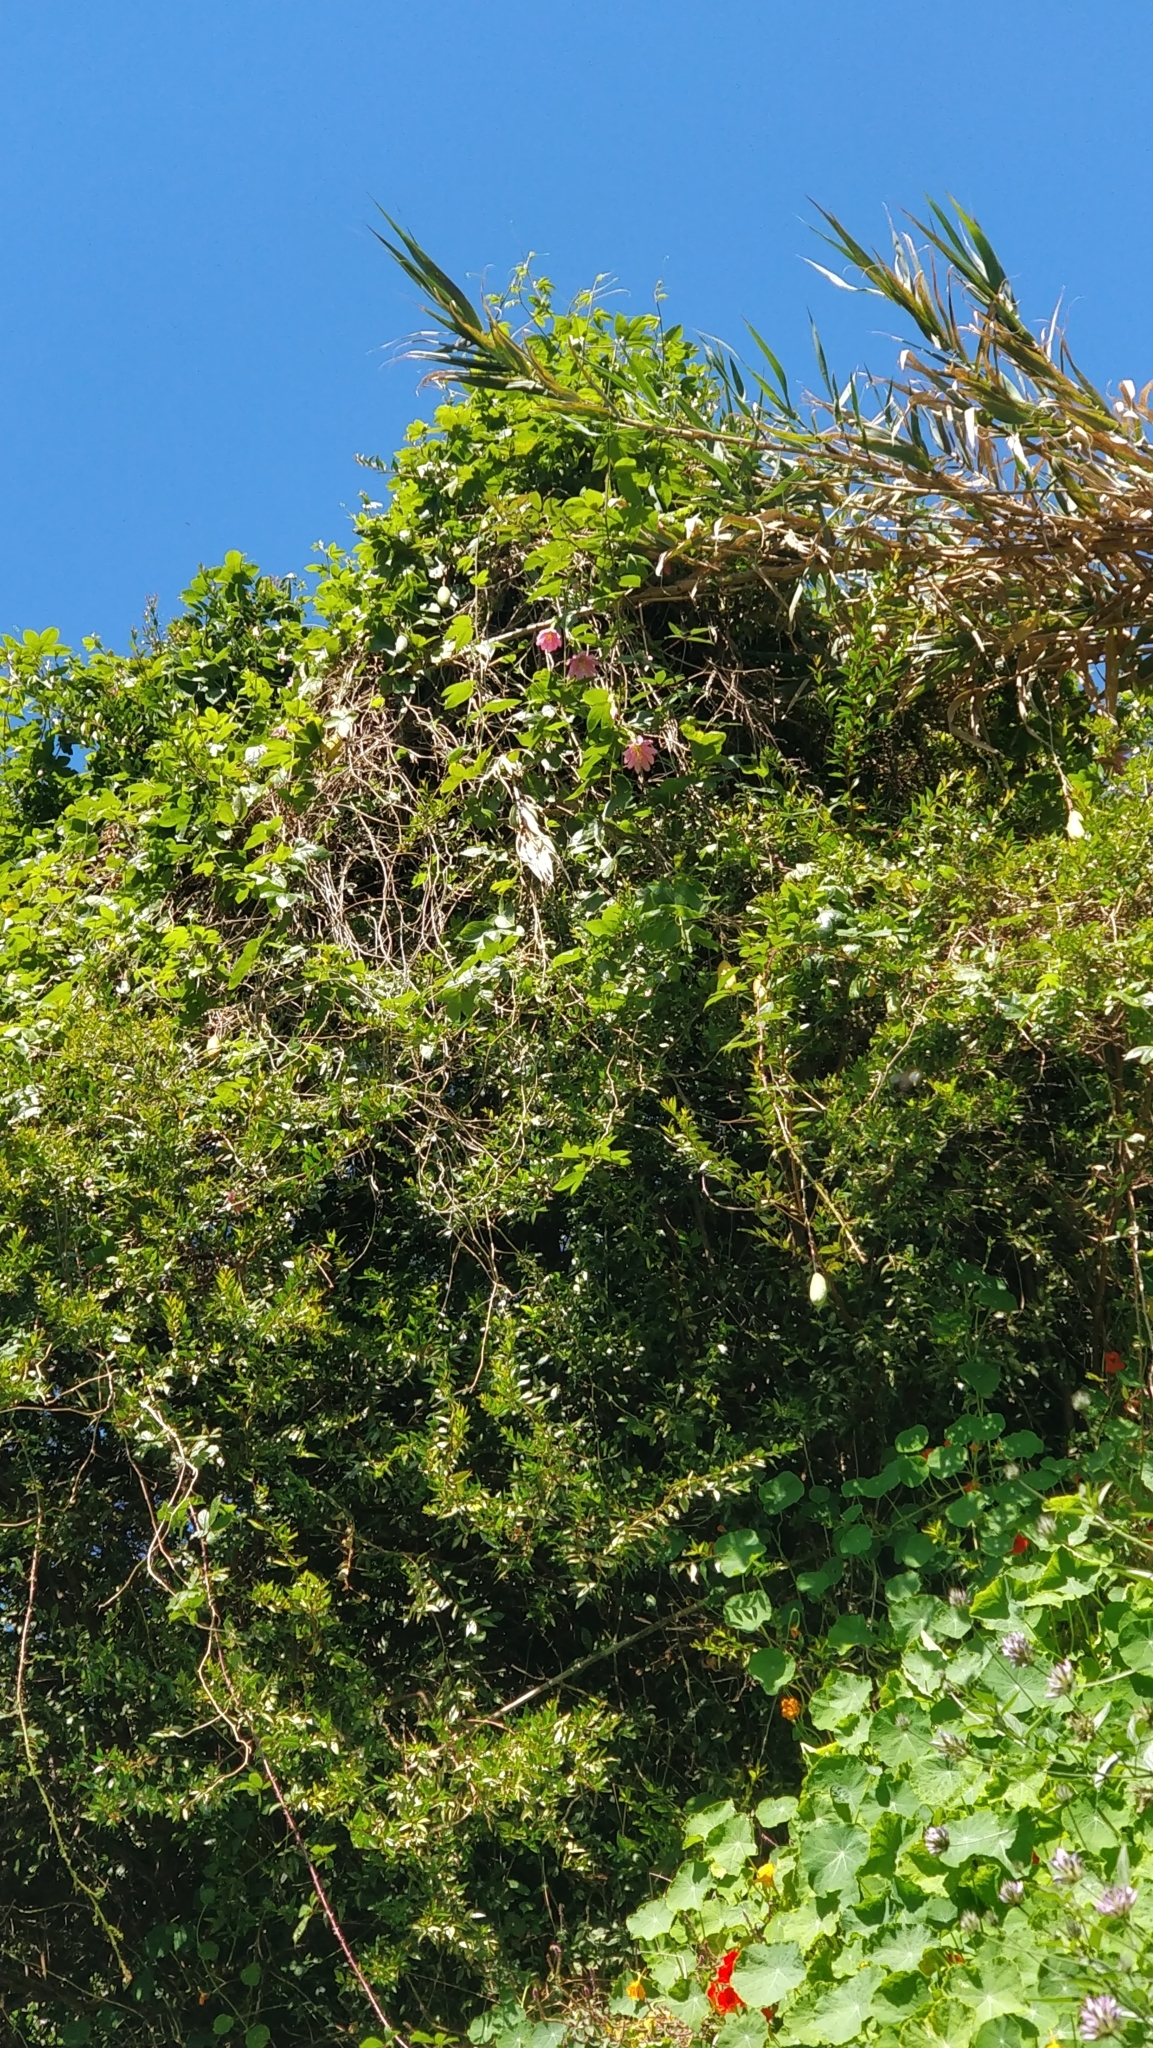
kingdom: Plantae
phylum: Tracheophyta
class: Magnoliopsida
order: Malpighiales
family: Passifloraceae
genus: Passiflora
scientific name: Passiflora tarminiana
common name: Banana poka
